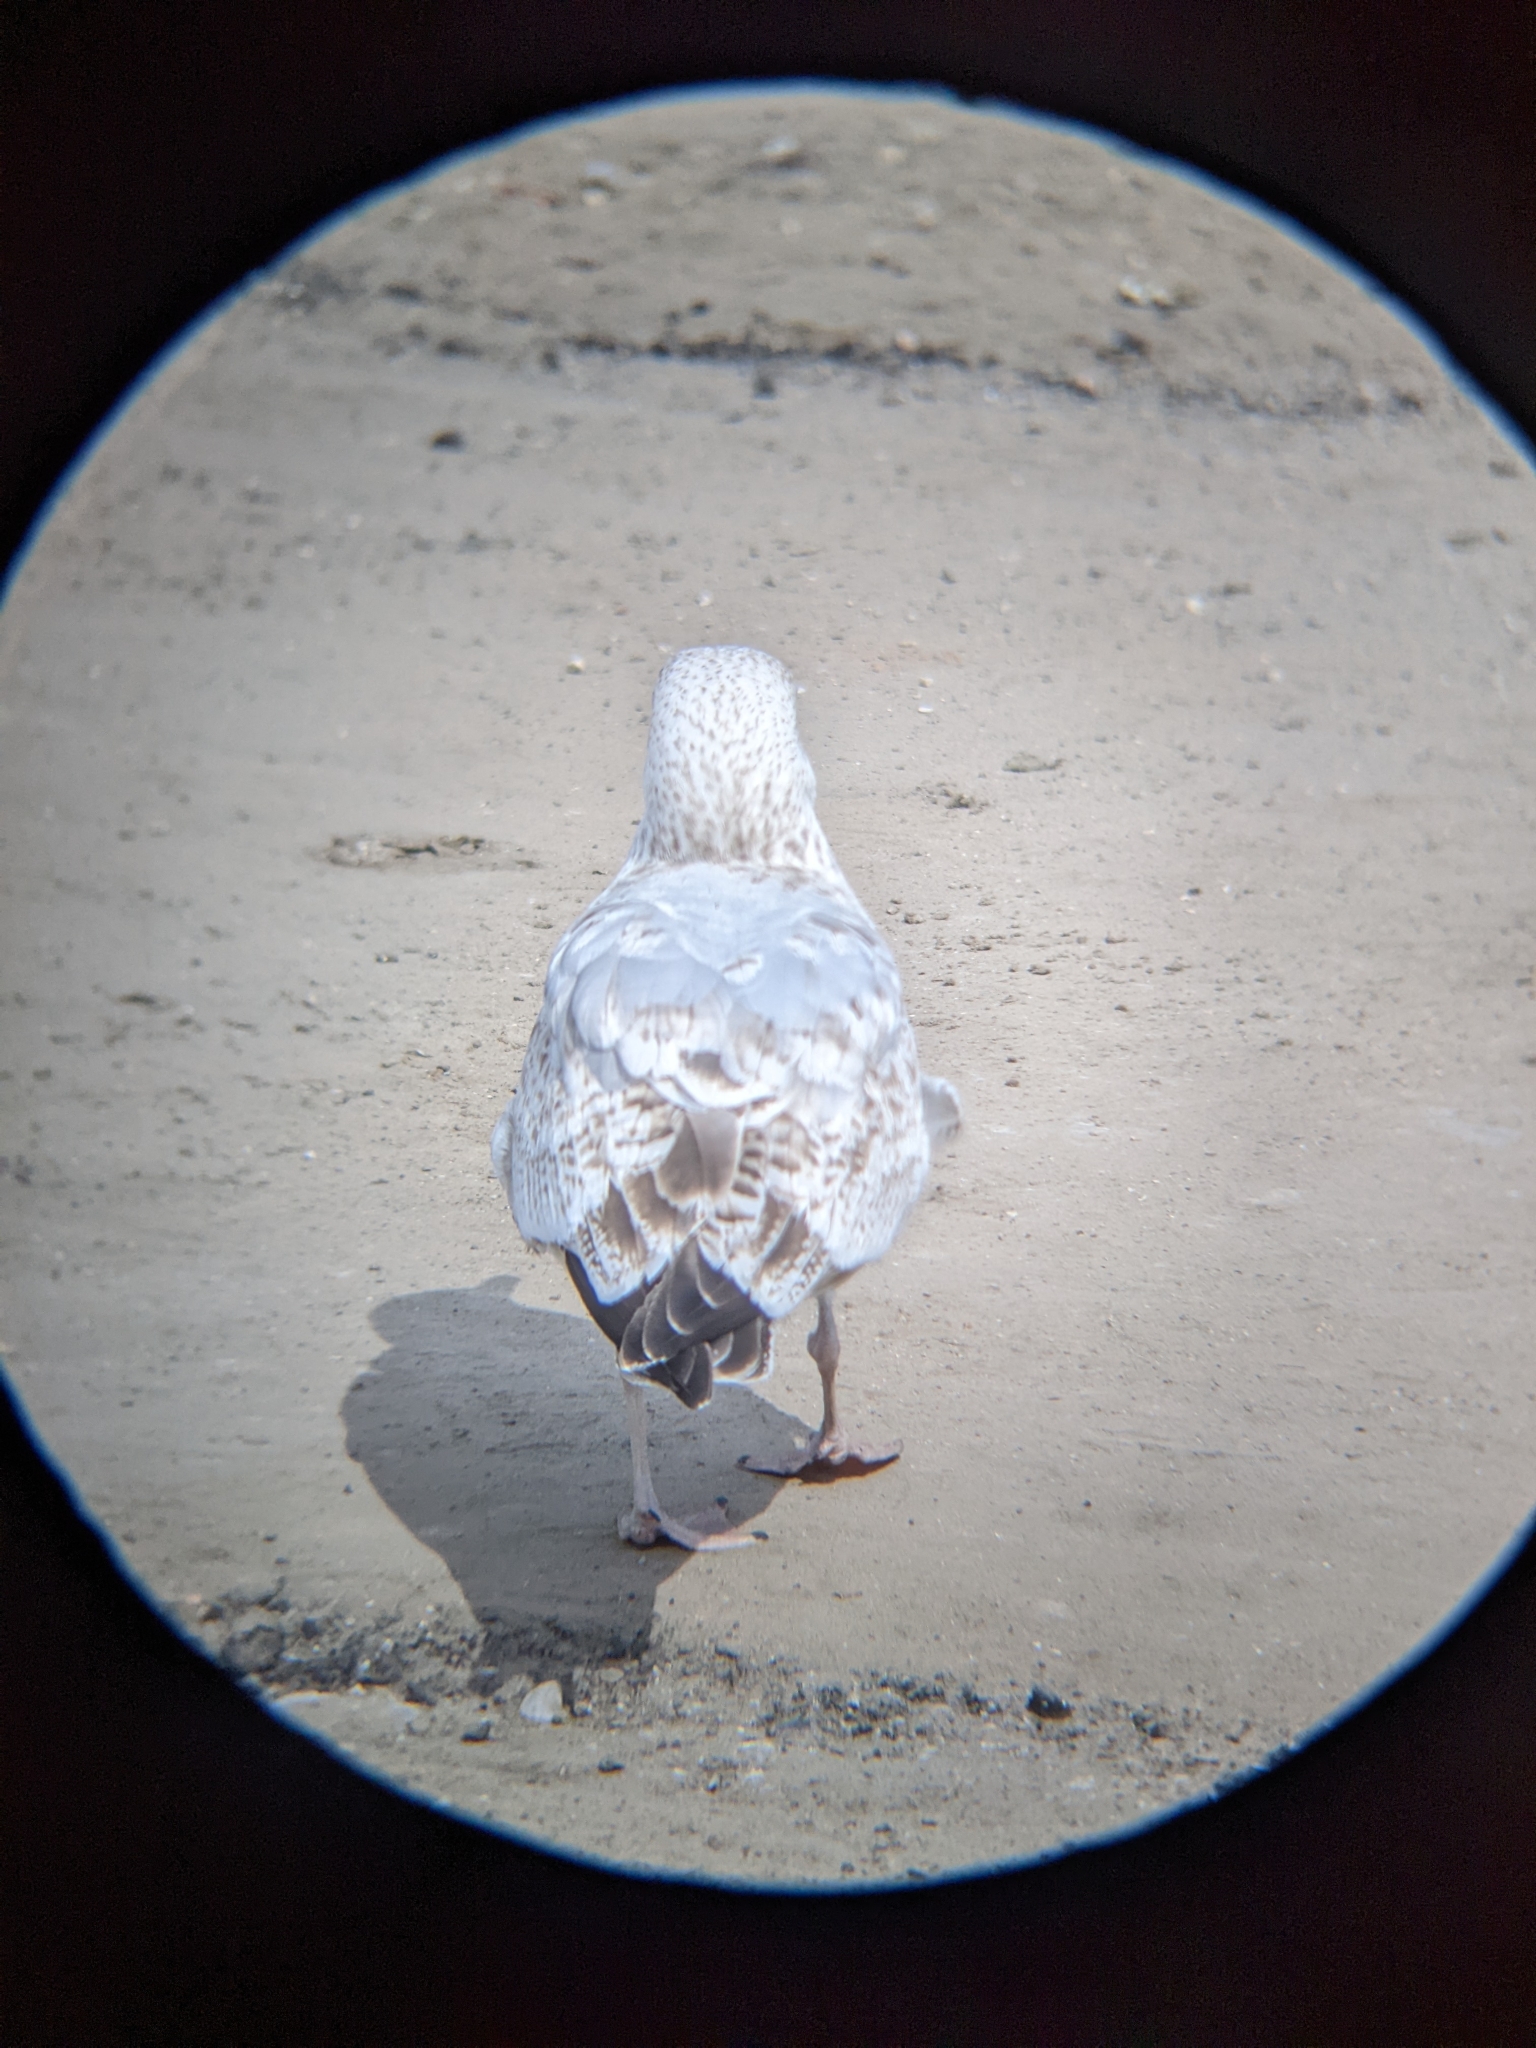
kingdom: Animalia
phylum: Chordata
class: Aves
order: Charadriiformes
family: Laridae
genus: Larus
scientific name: Larus argentatus
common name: Herring gull
